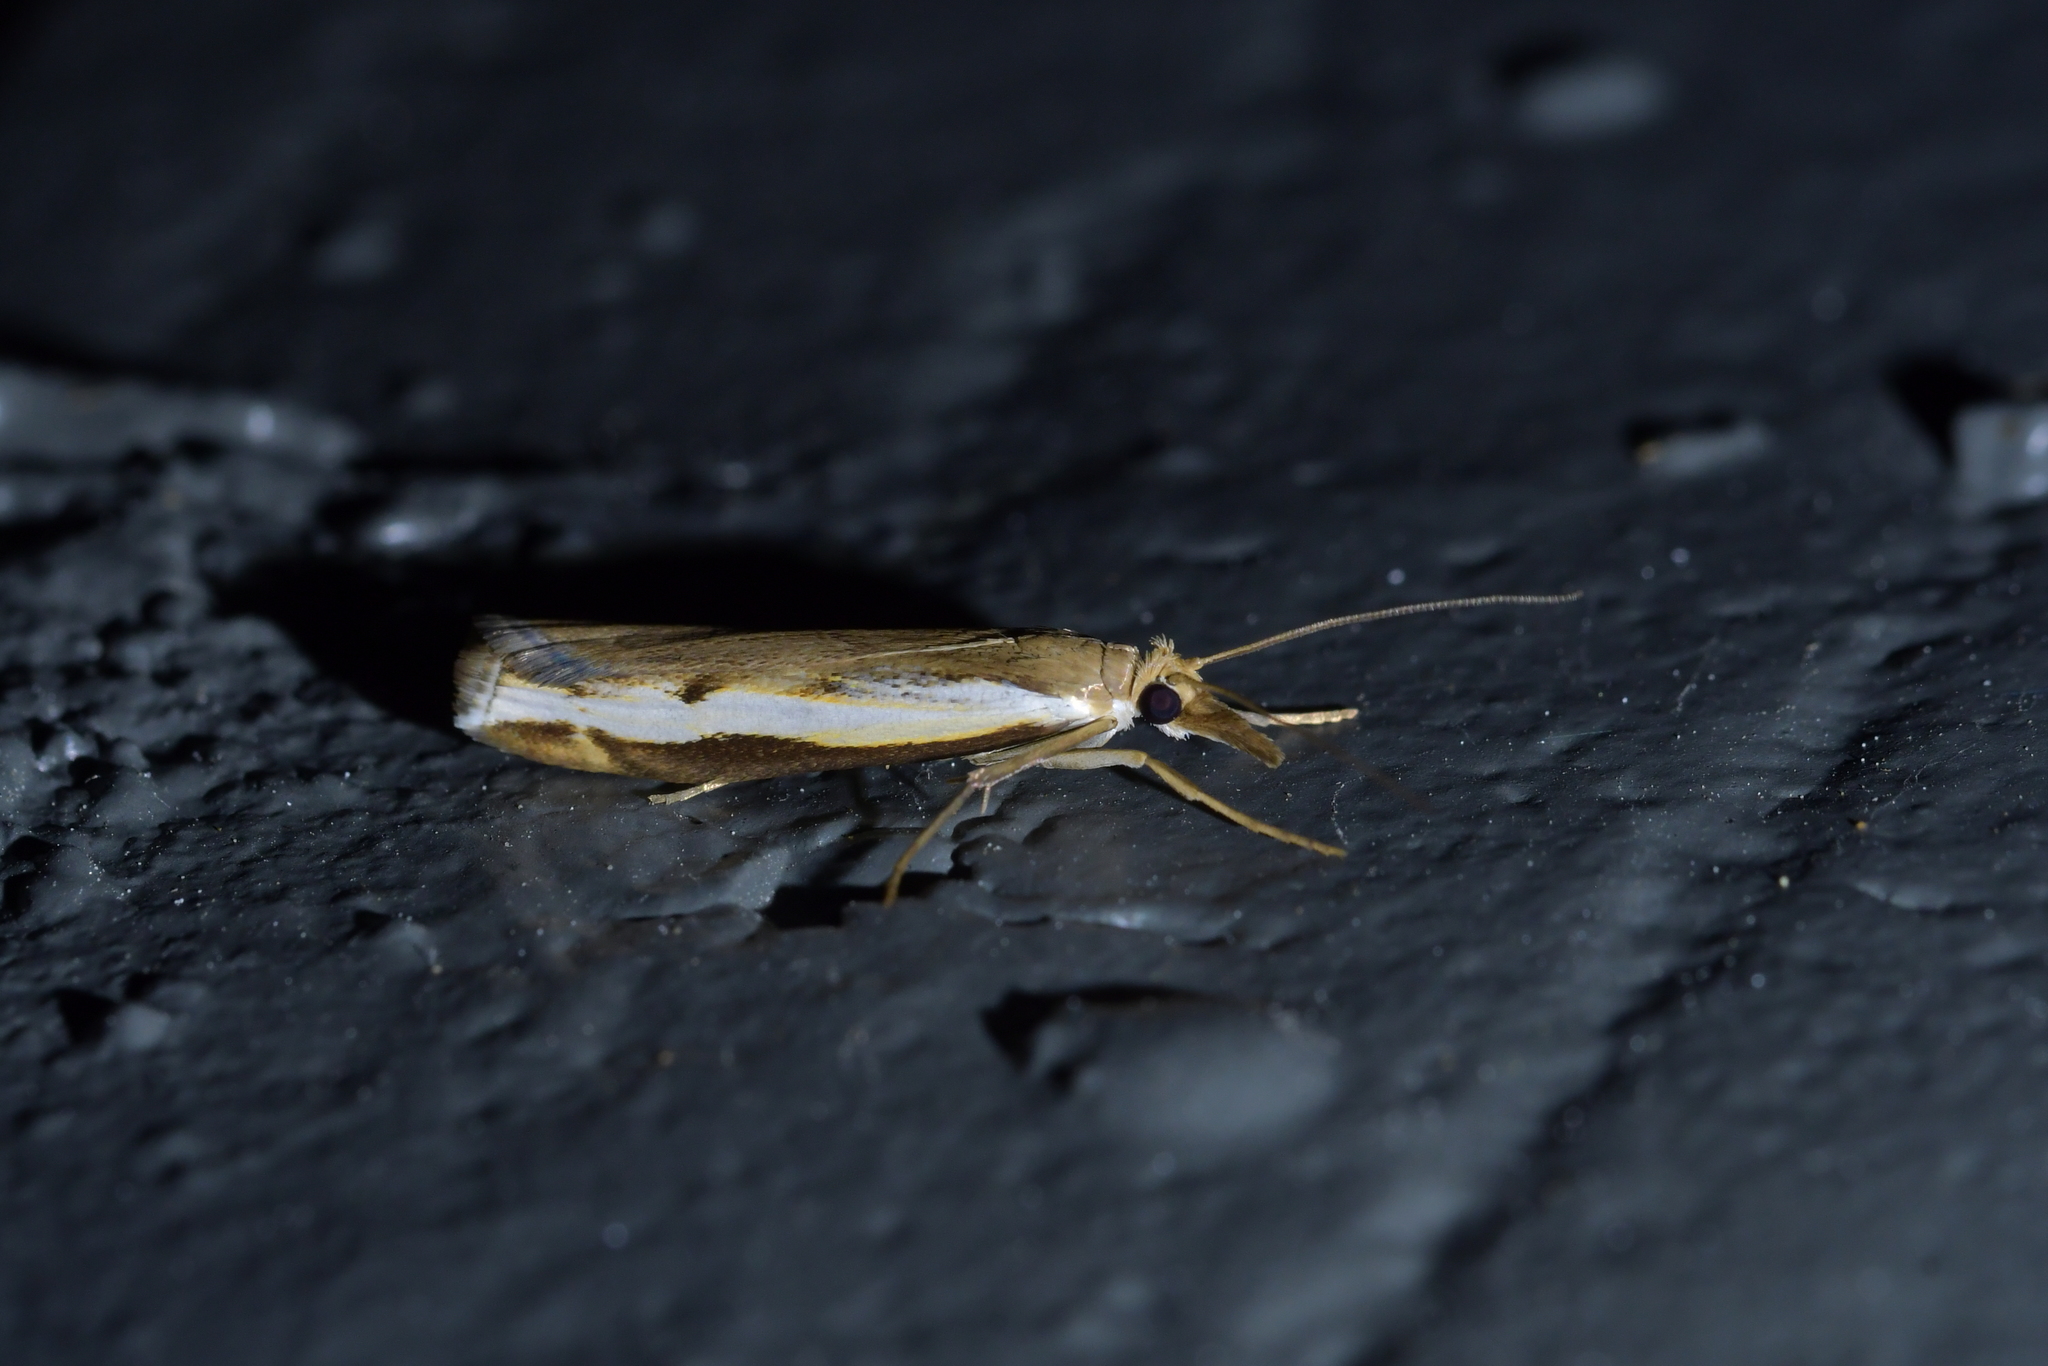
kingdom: Animalia
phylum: Arthropoda
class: Insecta
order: Lepidoptera
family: Crambidae
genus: Orocrambus
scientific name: Orocrambus flexuosellus
